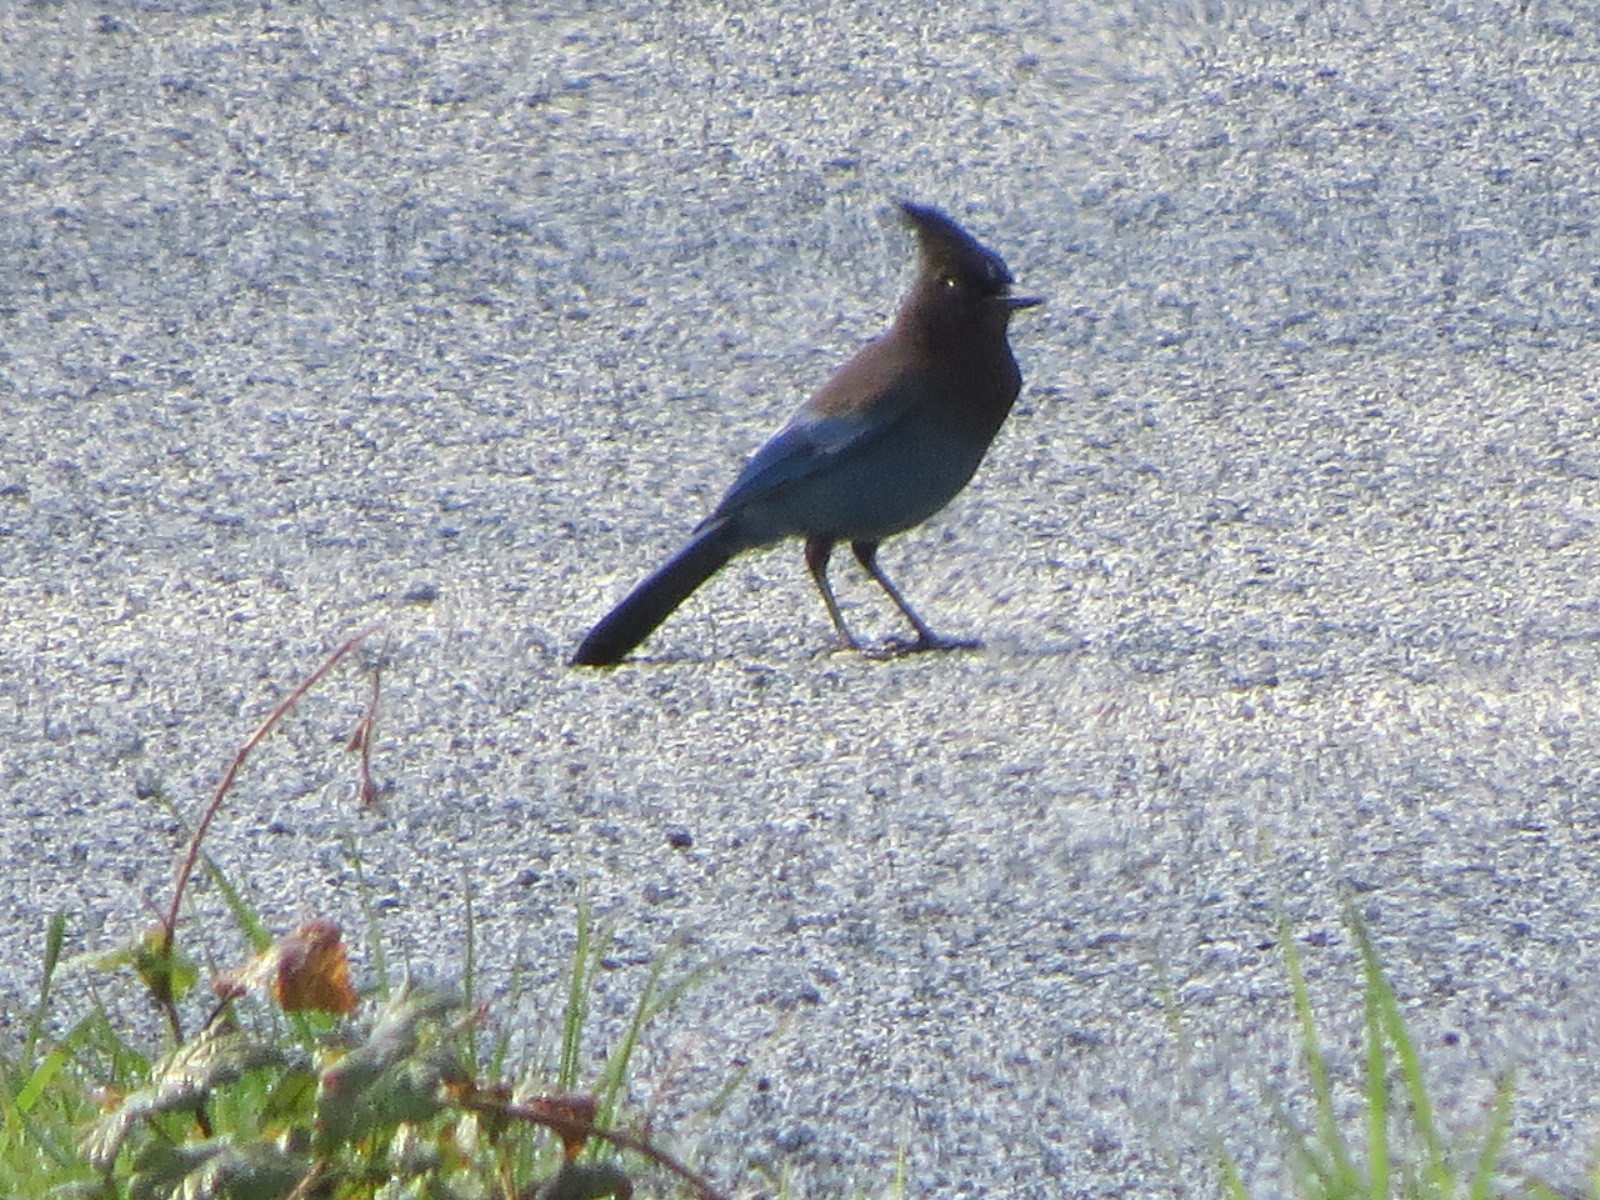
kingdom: Animalia
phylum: Chordata
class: Aves
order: Passeriformes
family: Corvidae
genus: Cyanocitta
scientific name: Cyanocitta stelleri
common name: Steller's jay
